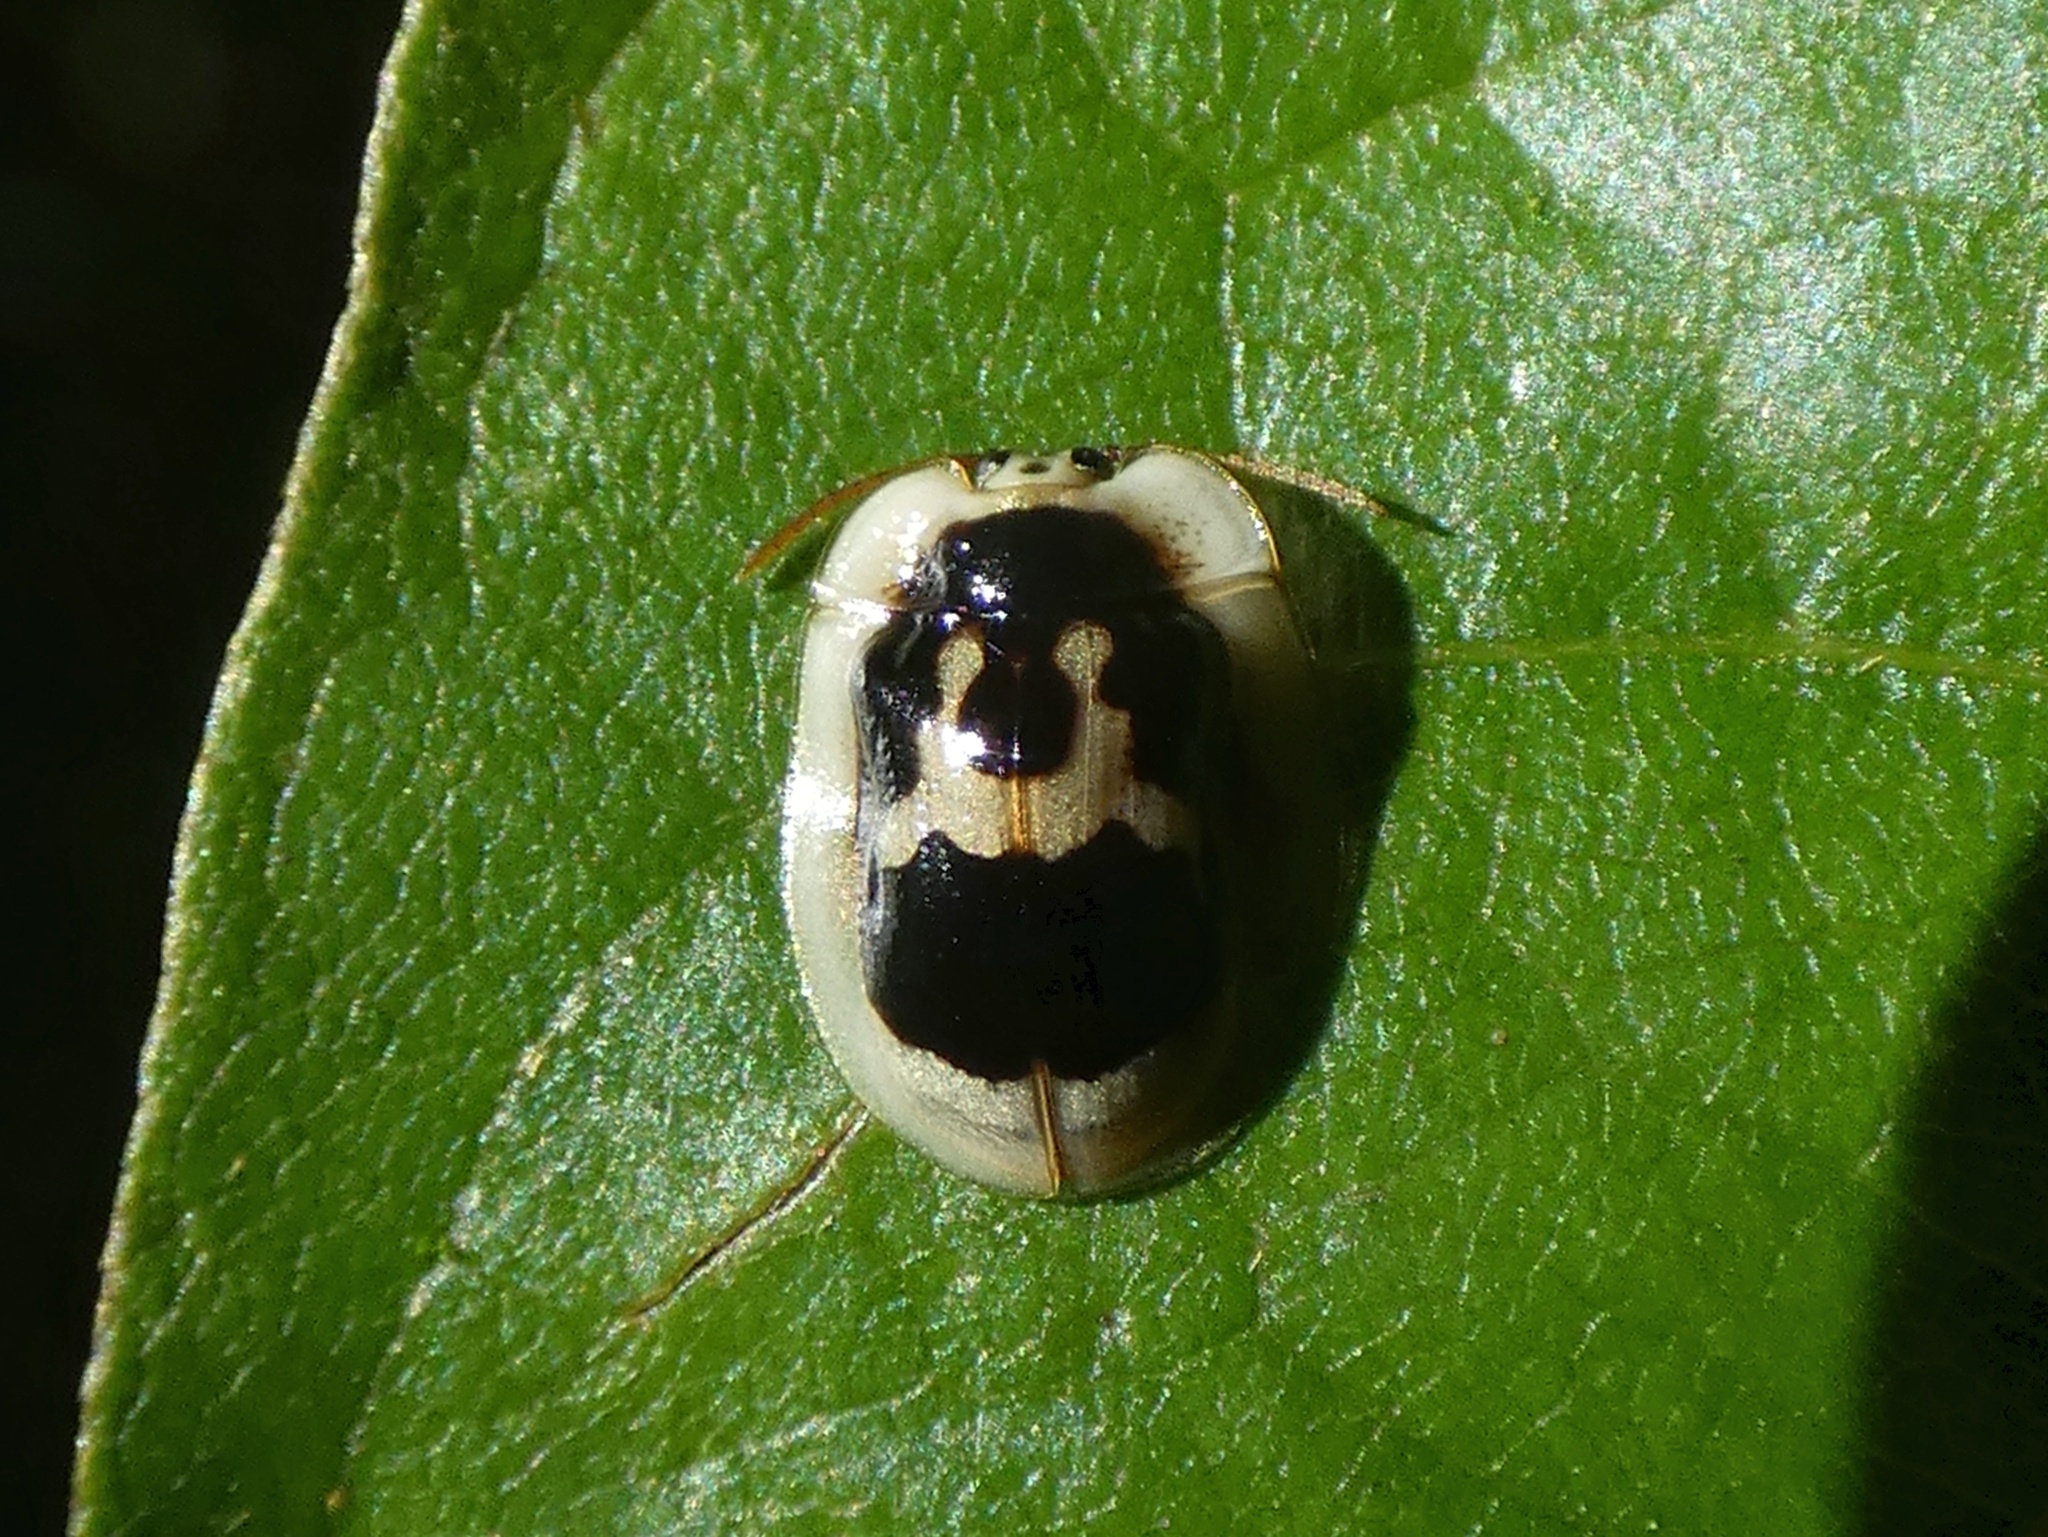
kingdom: Animalia
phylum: Arthropoda
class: Insecta
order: Coleoptera
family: Chrysomelidae
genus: Aslamidium
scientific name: Aslamidium semicirculare
